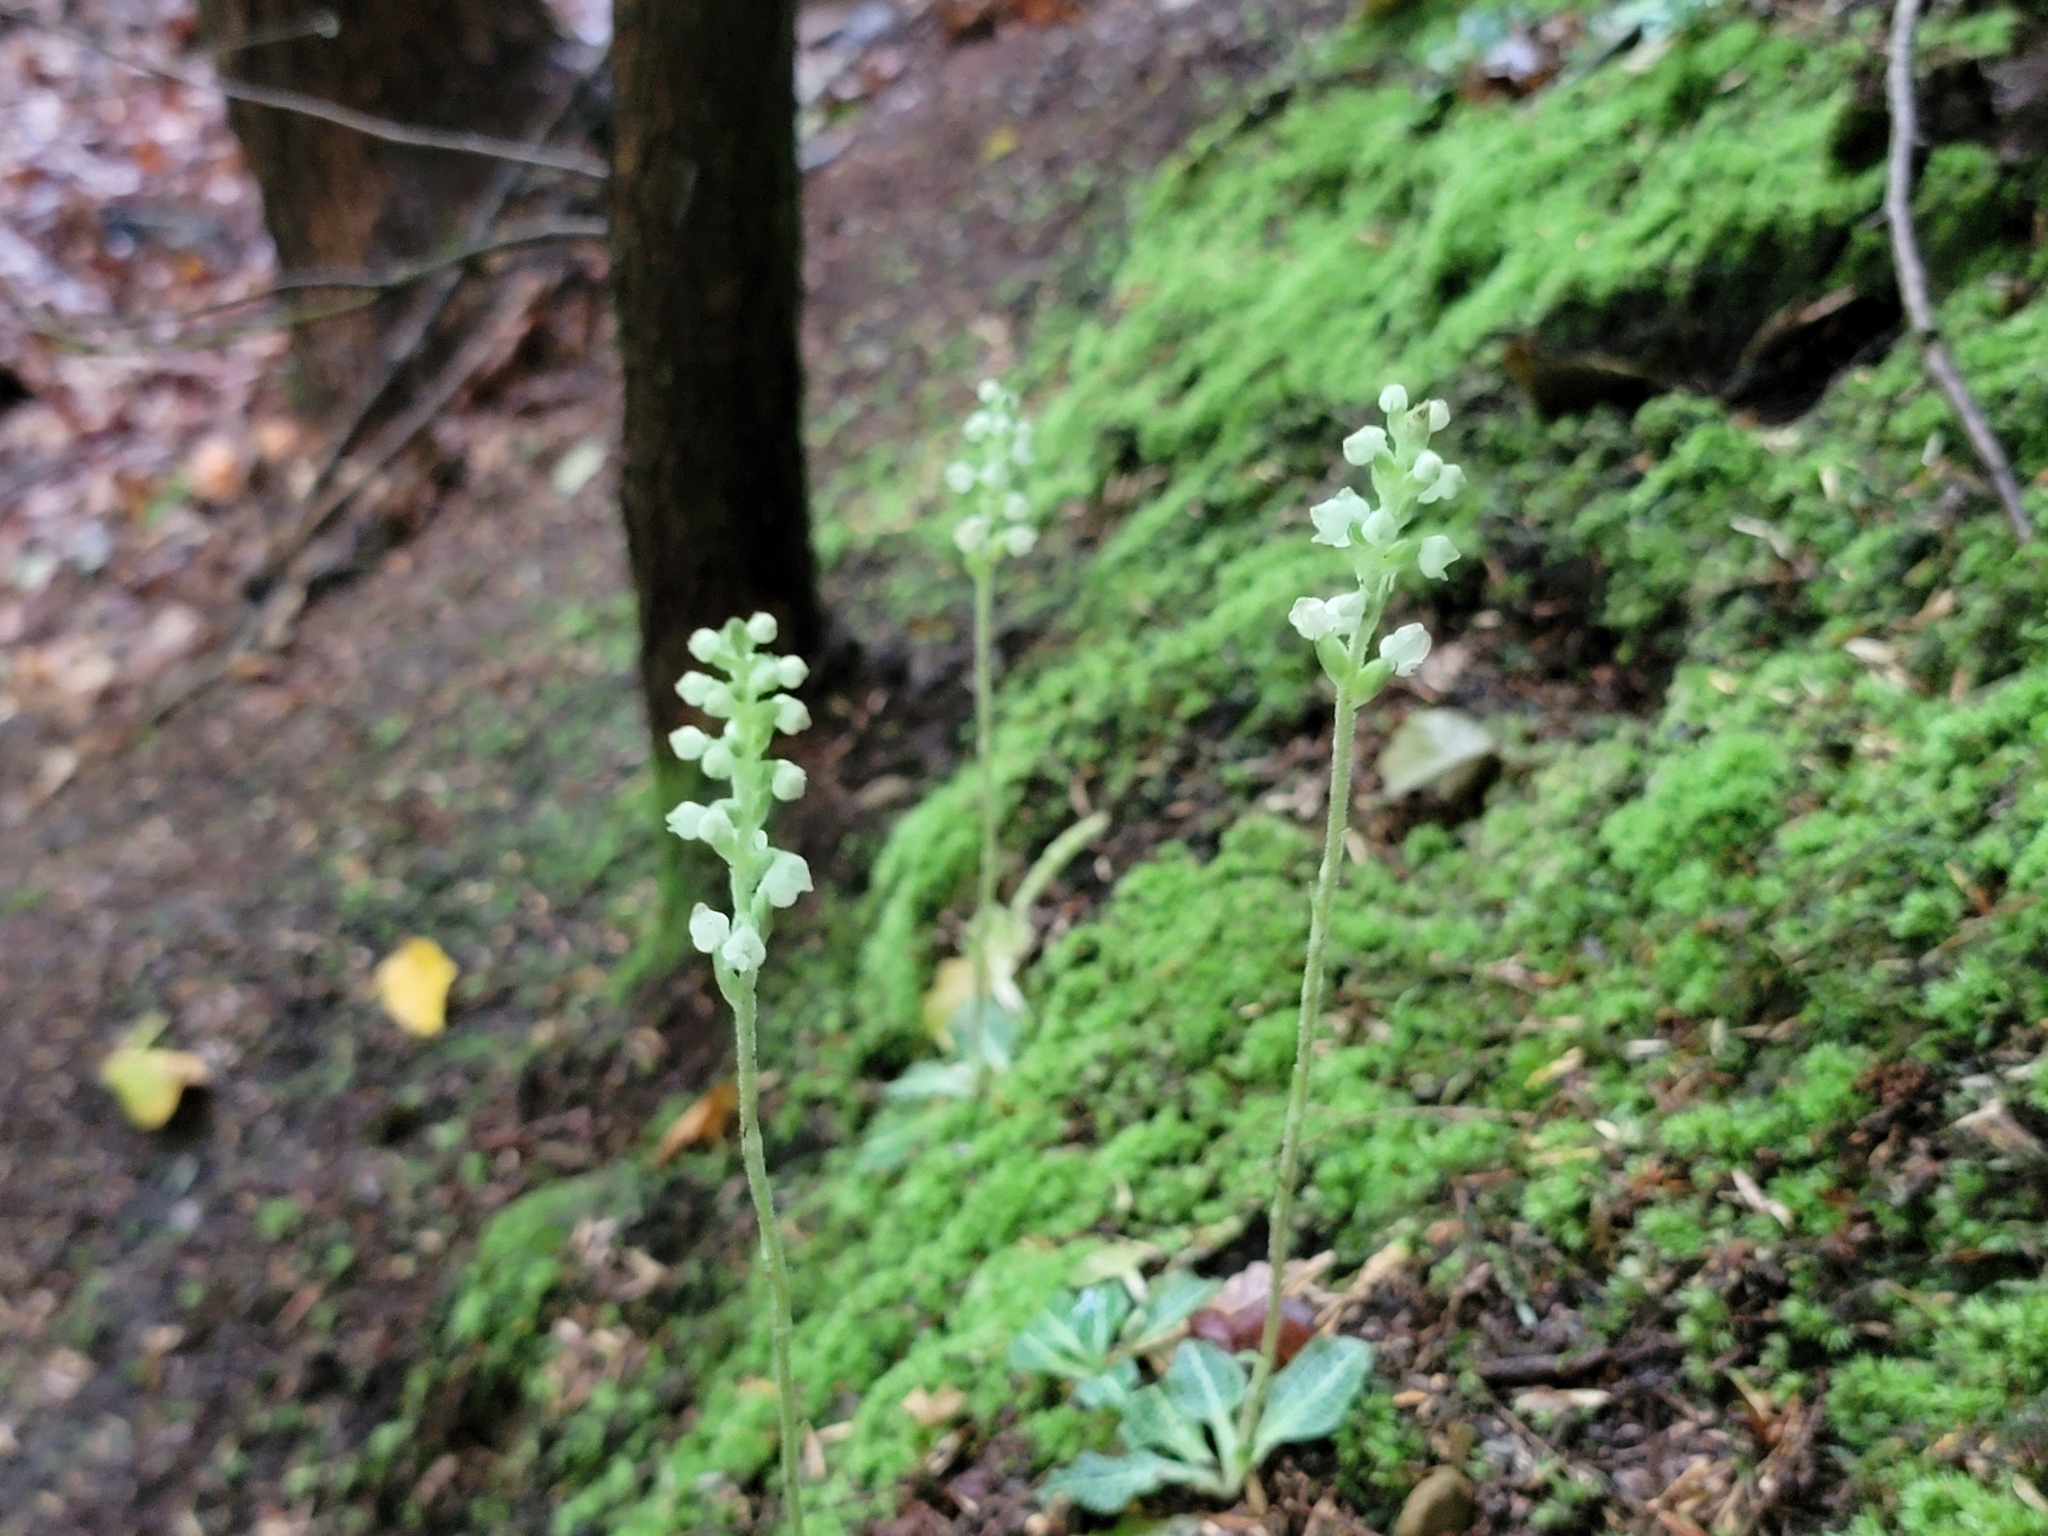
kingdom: Plantae
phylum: Tracheophyta
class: Liliopsida
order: Asparagales
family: Orchidaceae
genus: Goodyera
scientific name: Goodyera pubescens
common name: Downy rattlesnake-plantain
